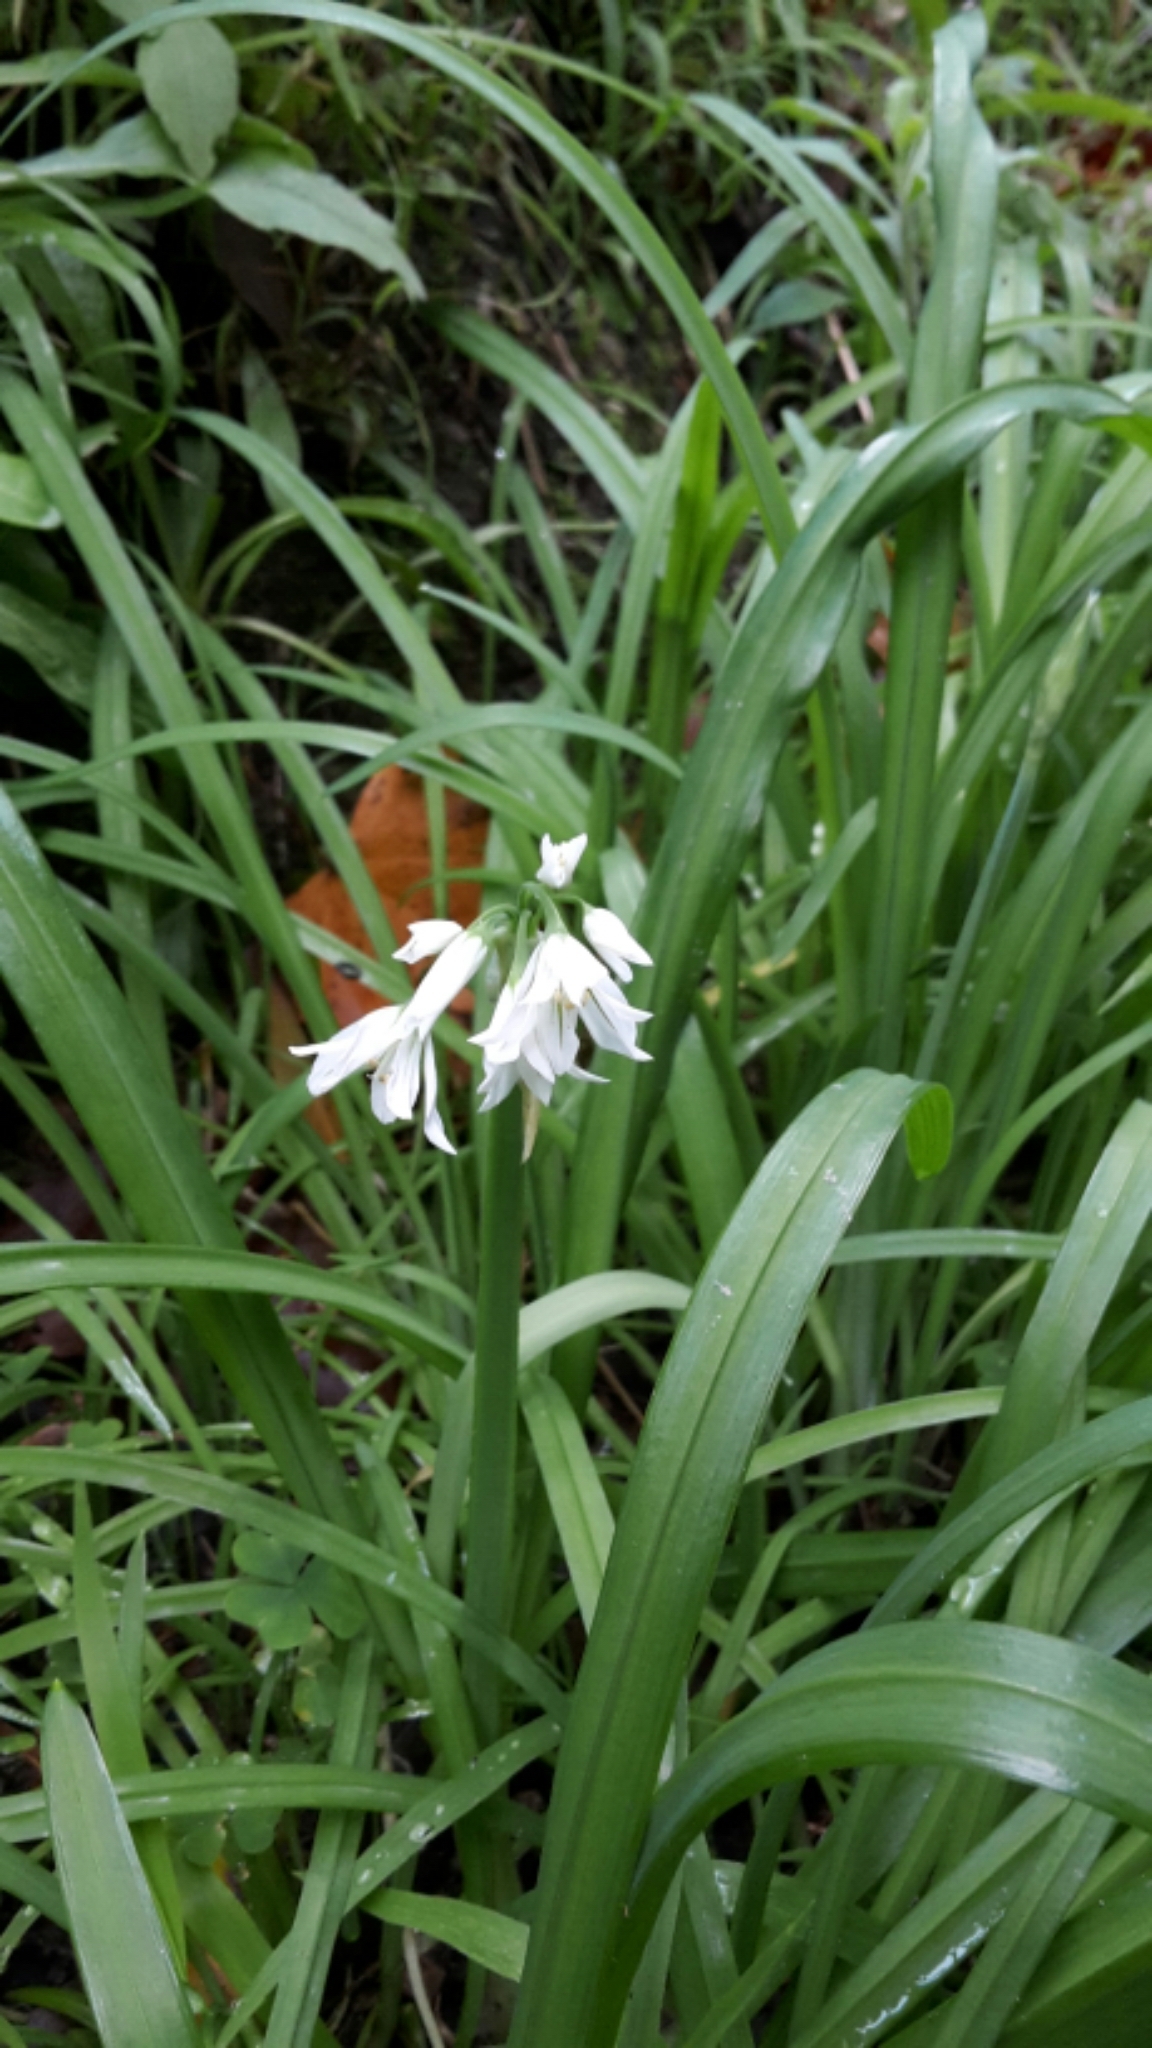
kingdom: Plantae
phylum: Tracheophyta
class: Liliopsida
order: Asparagales
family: Amaryllidaceae
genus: Allium
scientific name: Allium triquetrum
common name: Three-cornered garlic
